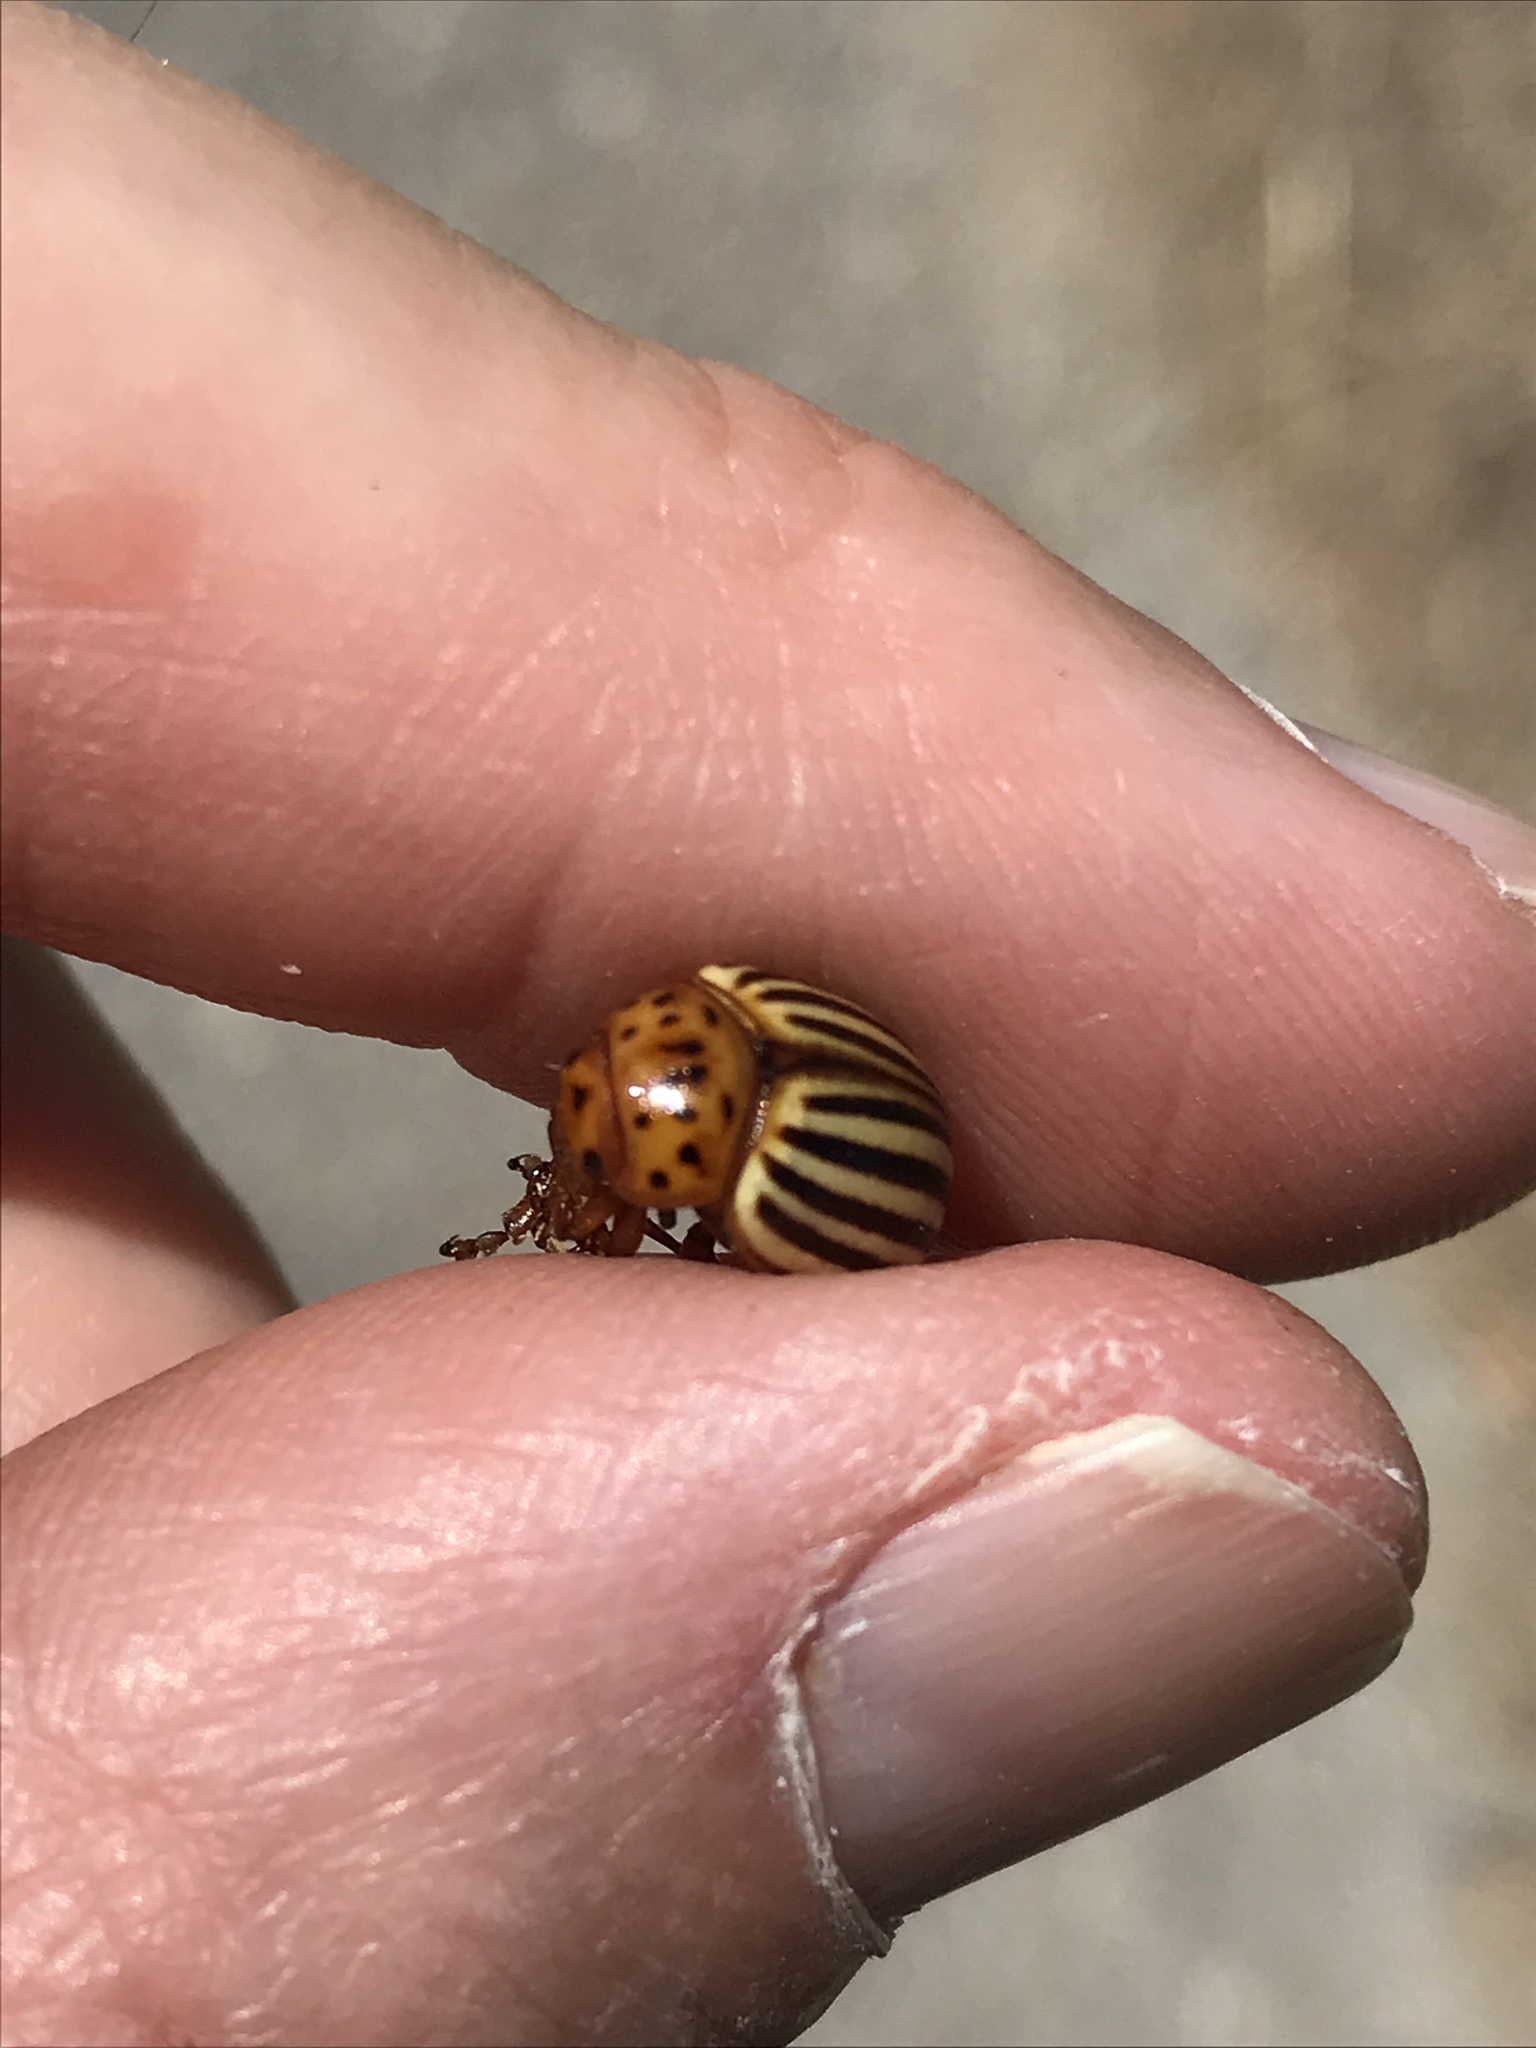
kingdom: Animalia
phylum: Arthropoda
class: Insecta
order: Coleoptera
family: Chrysomelidae
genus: Leptinotarsa
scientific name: Leptinotarsa decemlineata
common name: Colorado potato beetle
